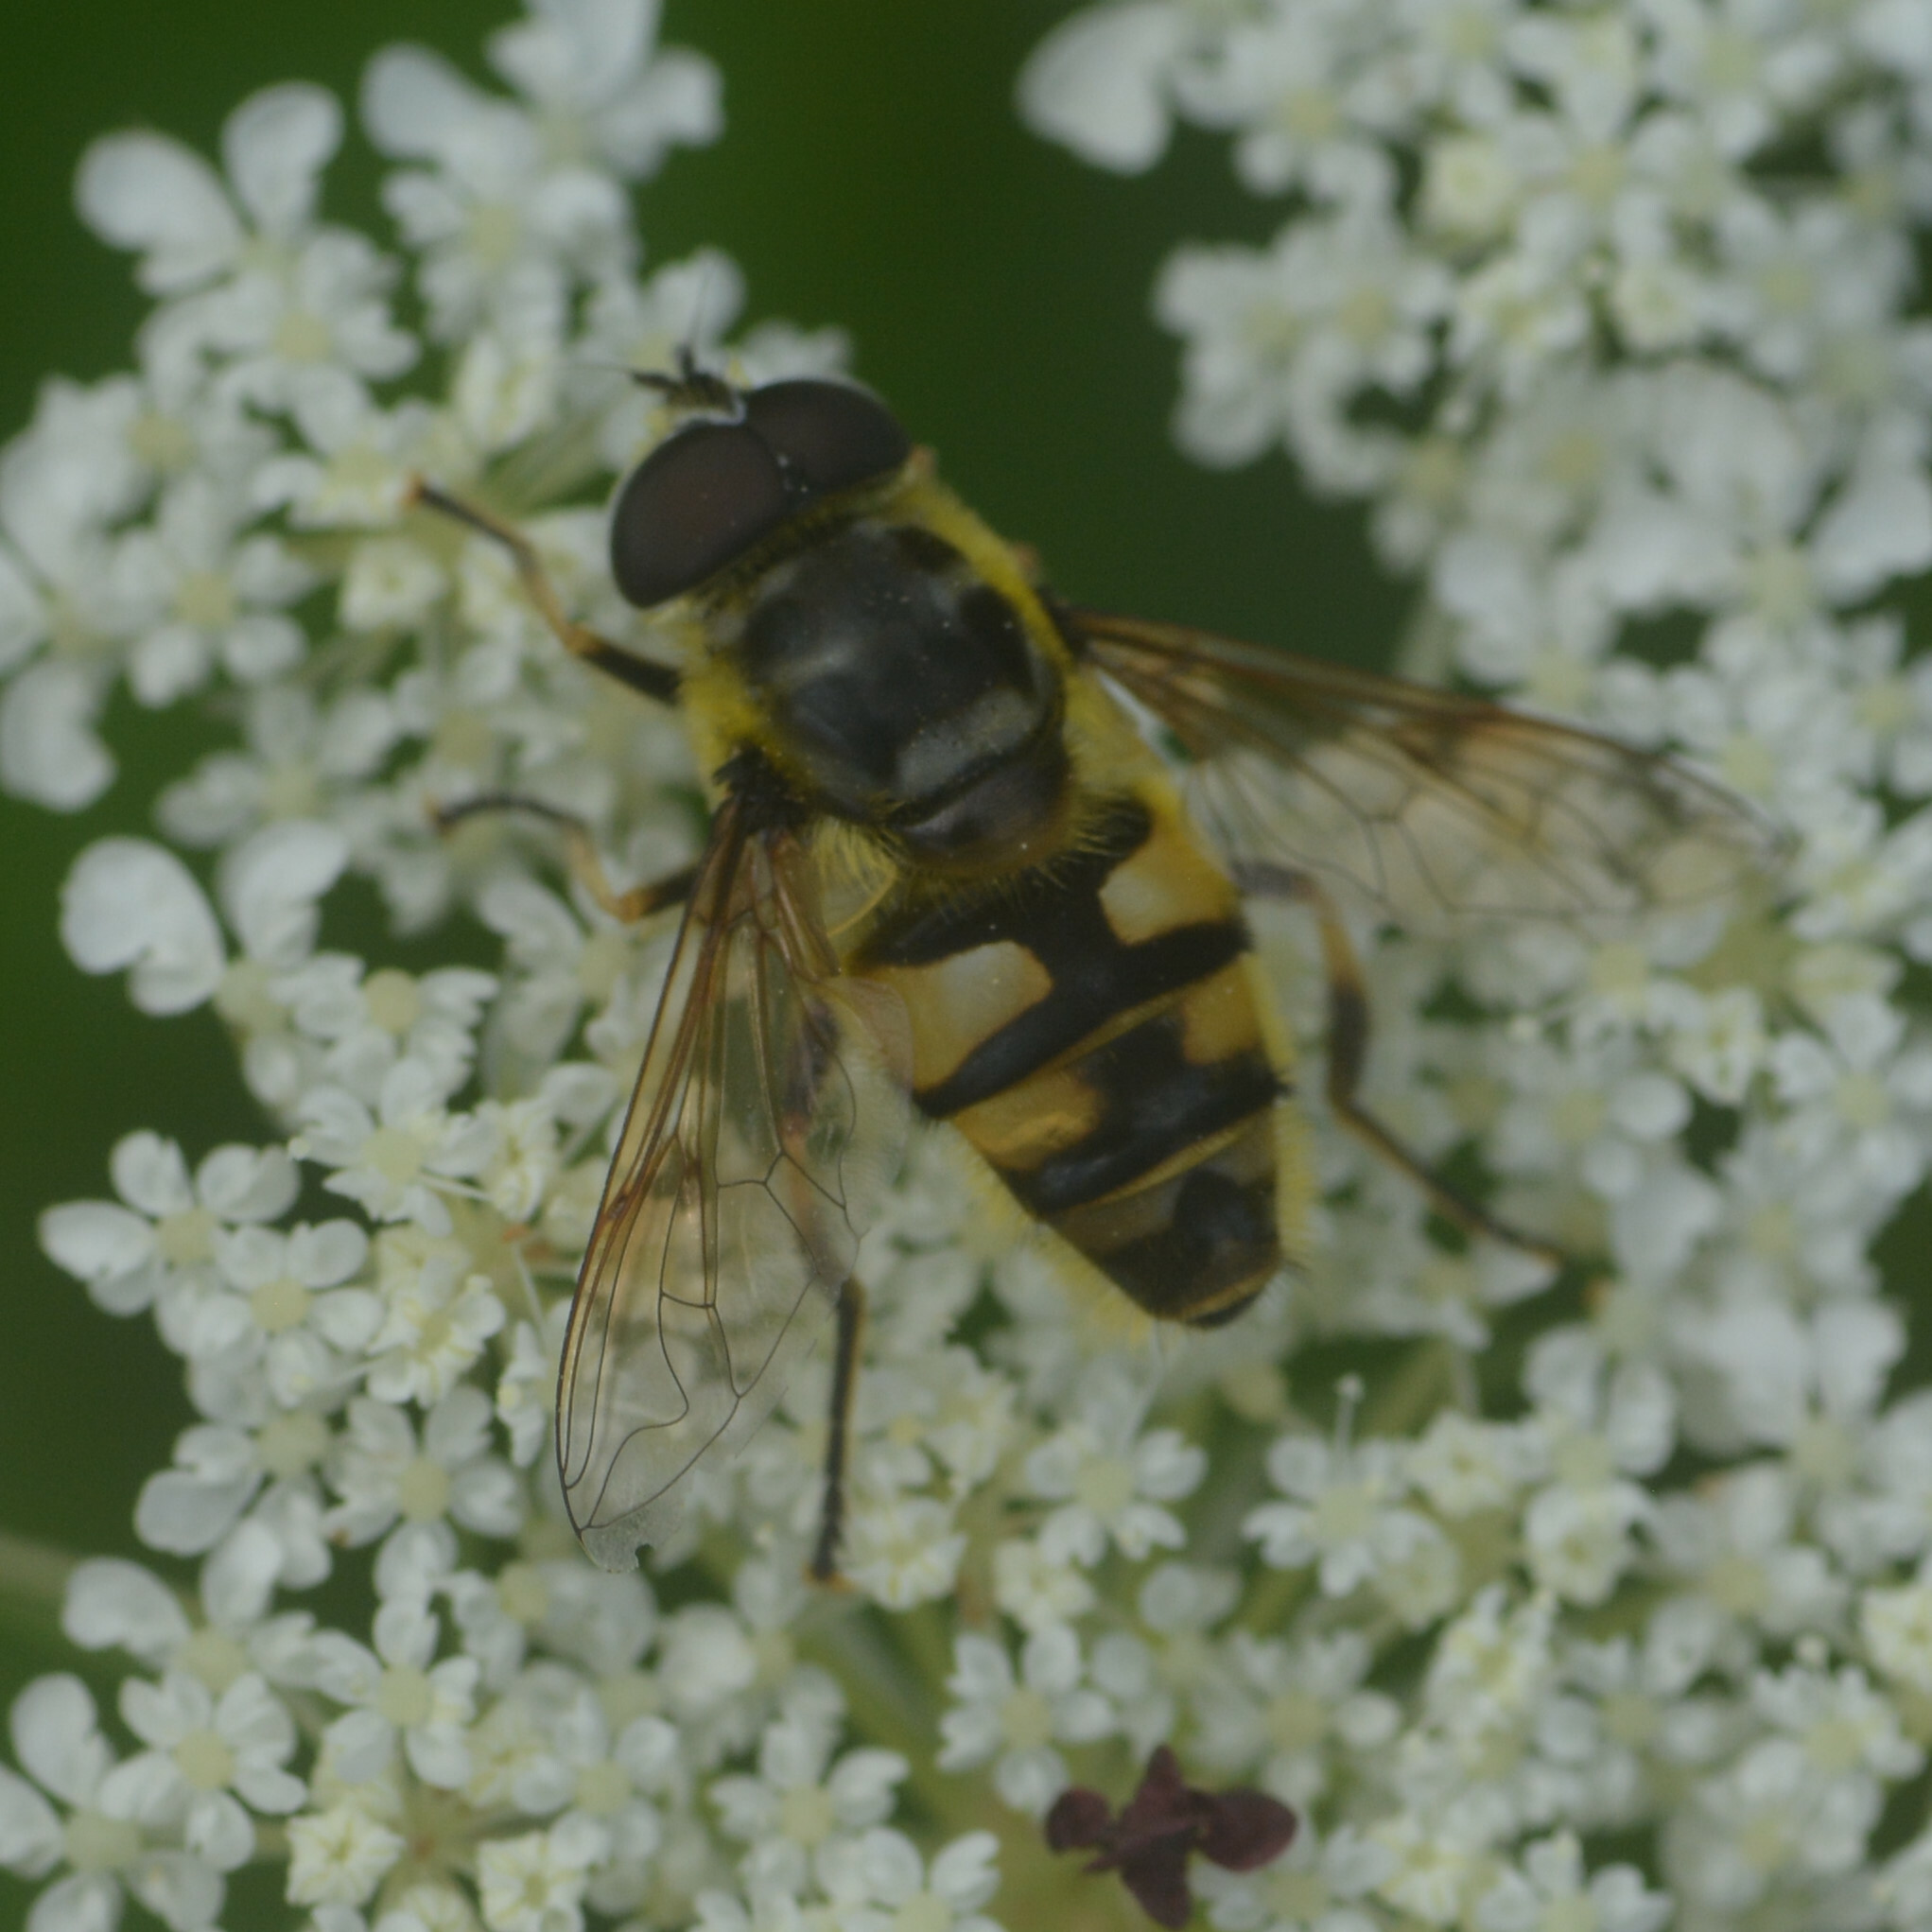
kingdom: Animalia
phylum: Arthropoda
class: Insecta
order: Diptera
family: Syrphidae
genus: Myathropa
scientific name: Myathropa florea
